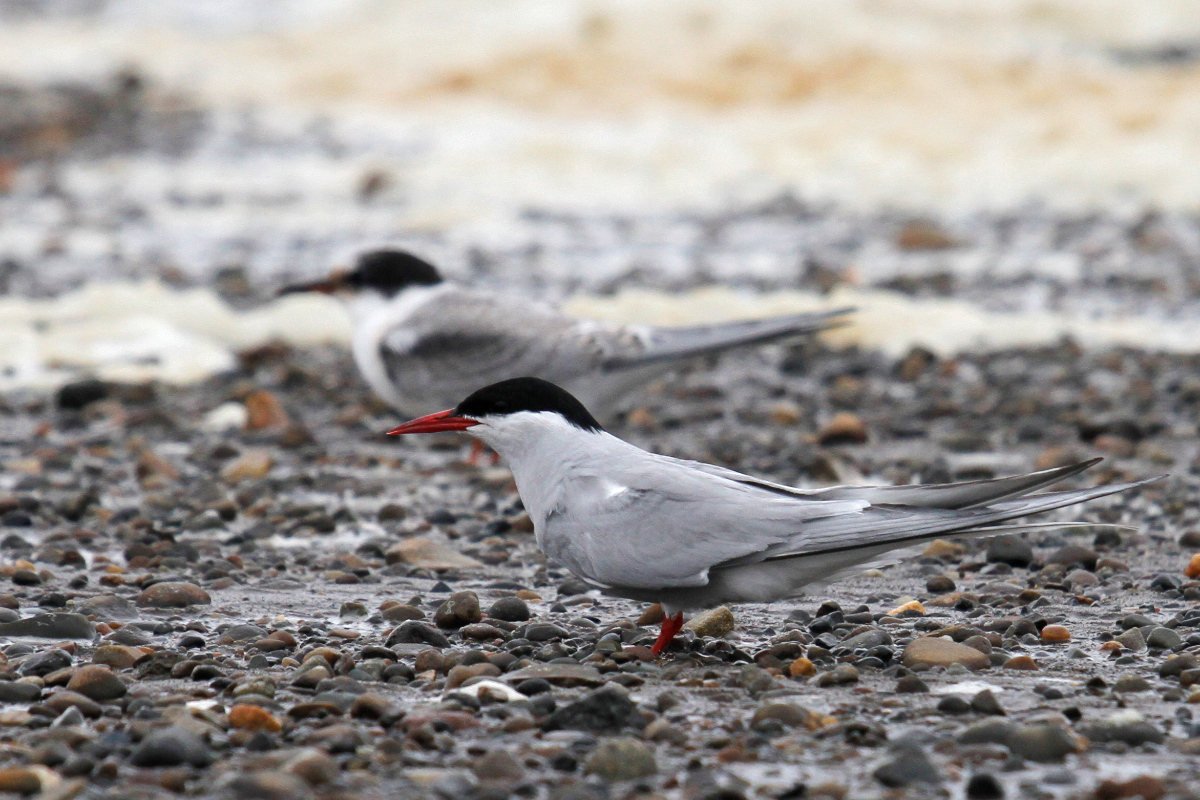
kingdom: Animalia
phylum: Chordata
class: Aves
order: Charadriiformes
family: Laridae
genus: Sterna
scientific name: Sterna paradisaea
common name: Arctic tern
